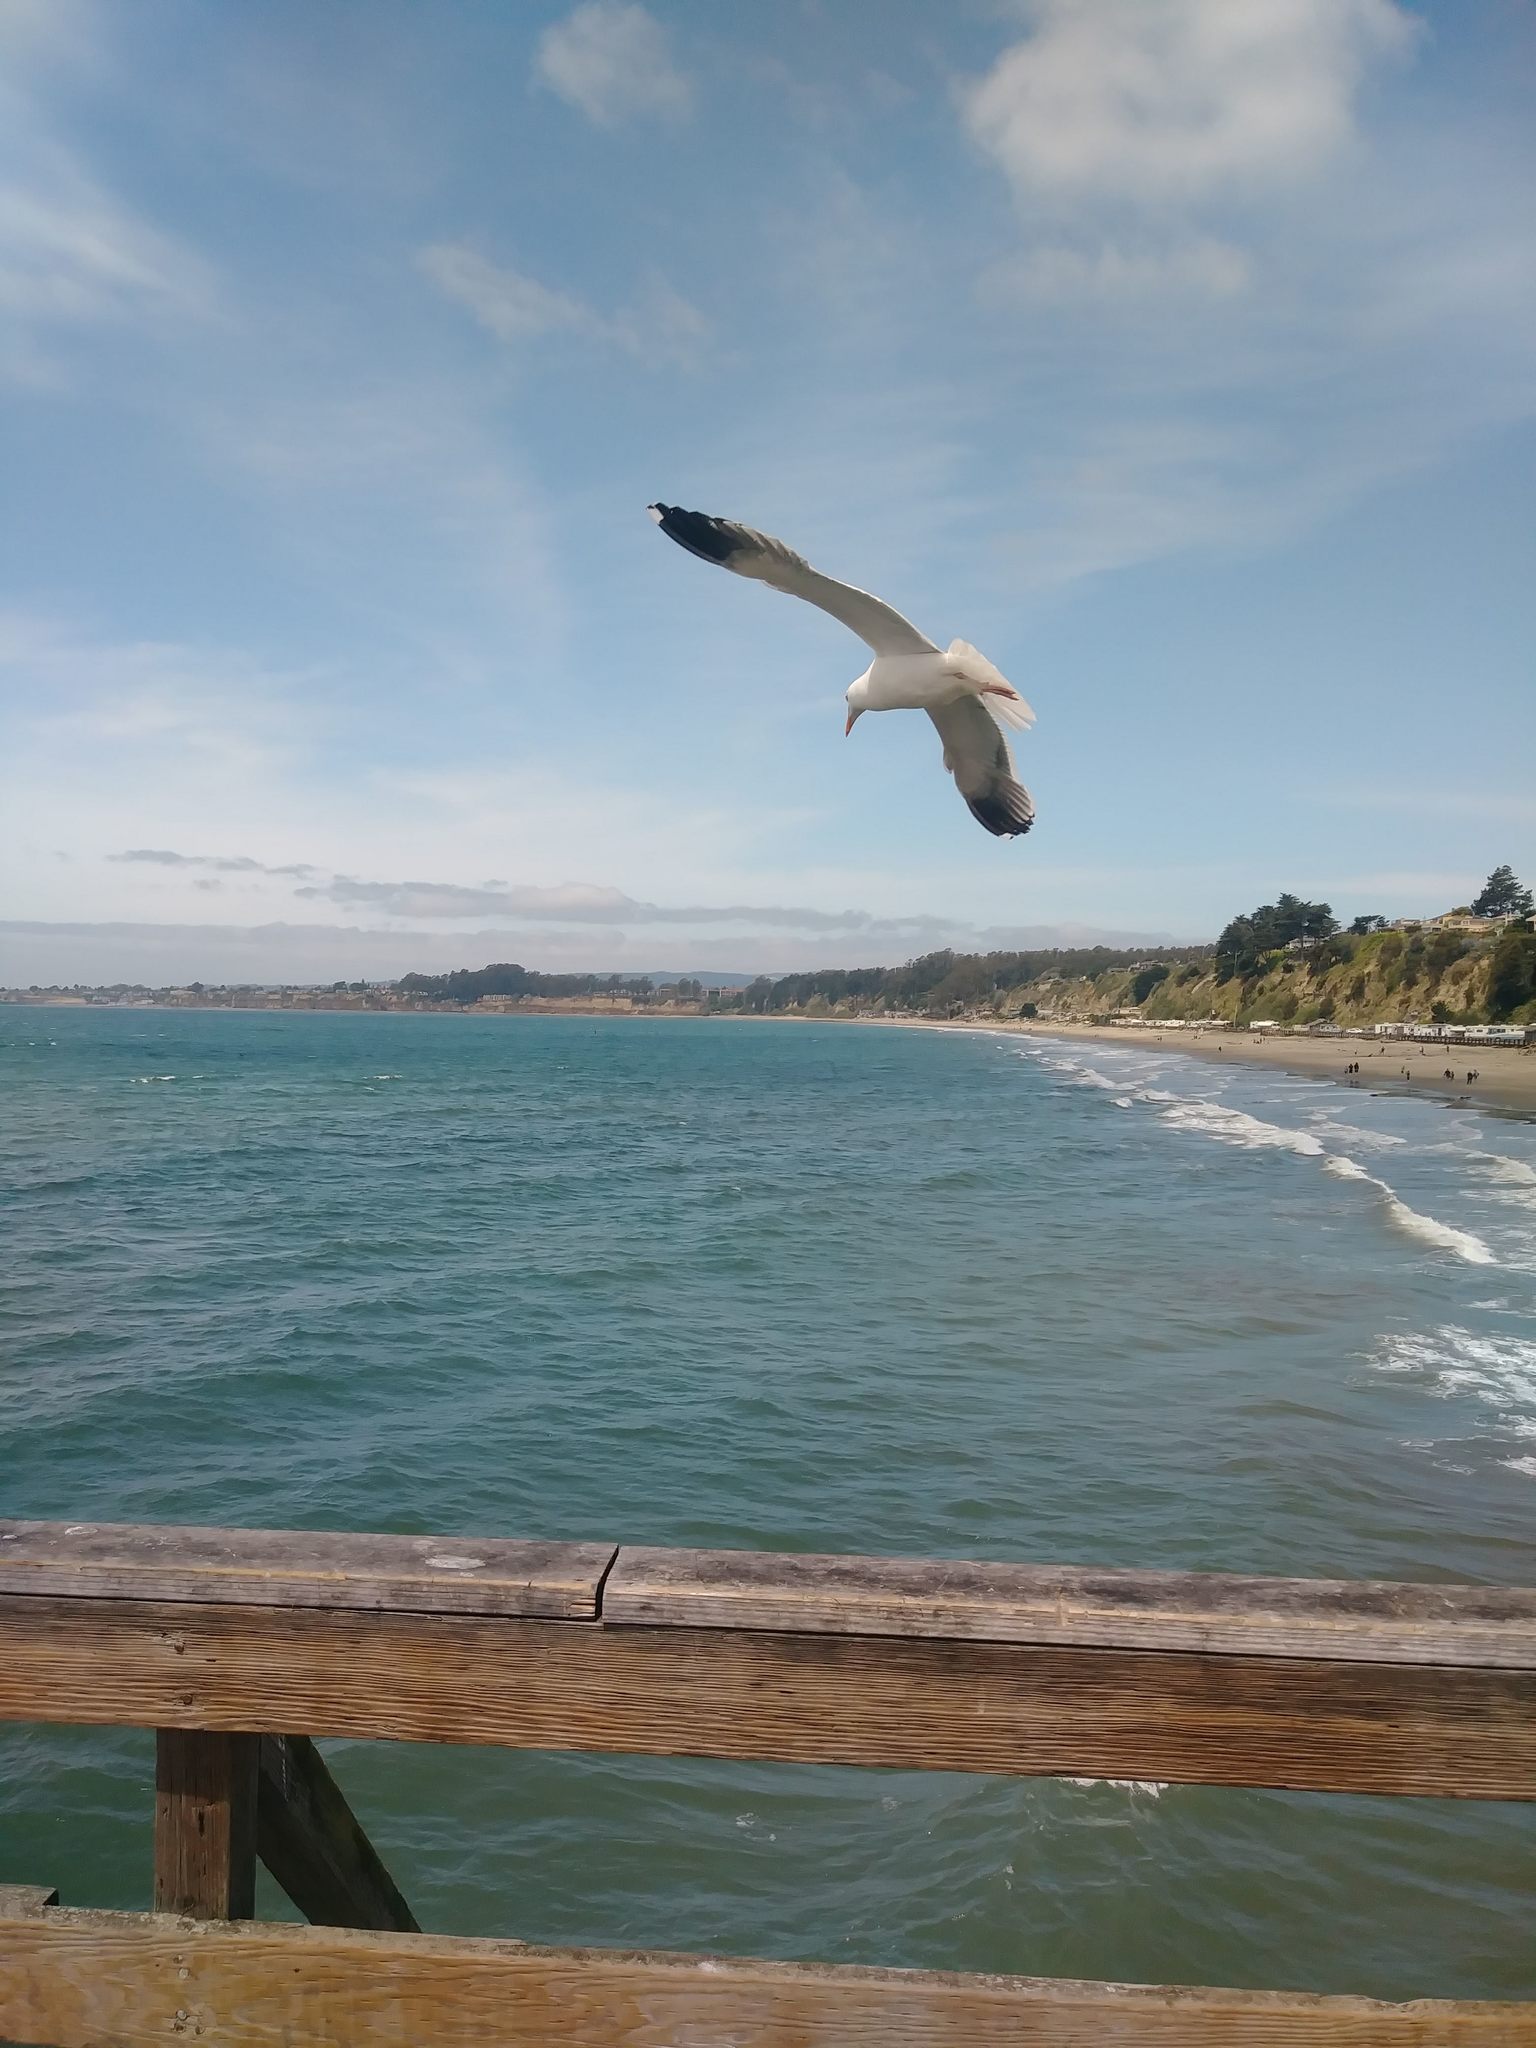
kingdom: Animalia
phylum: Chordata
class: Aves
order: Charadriiformes
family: Laridae
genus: Larus
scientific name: Larus occidentalis
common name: Western gull
